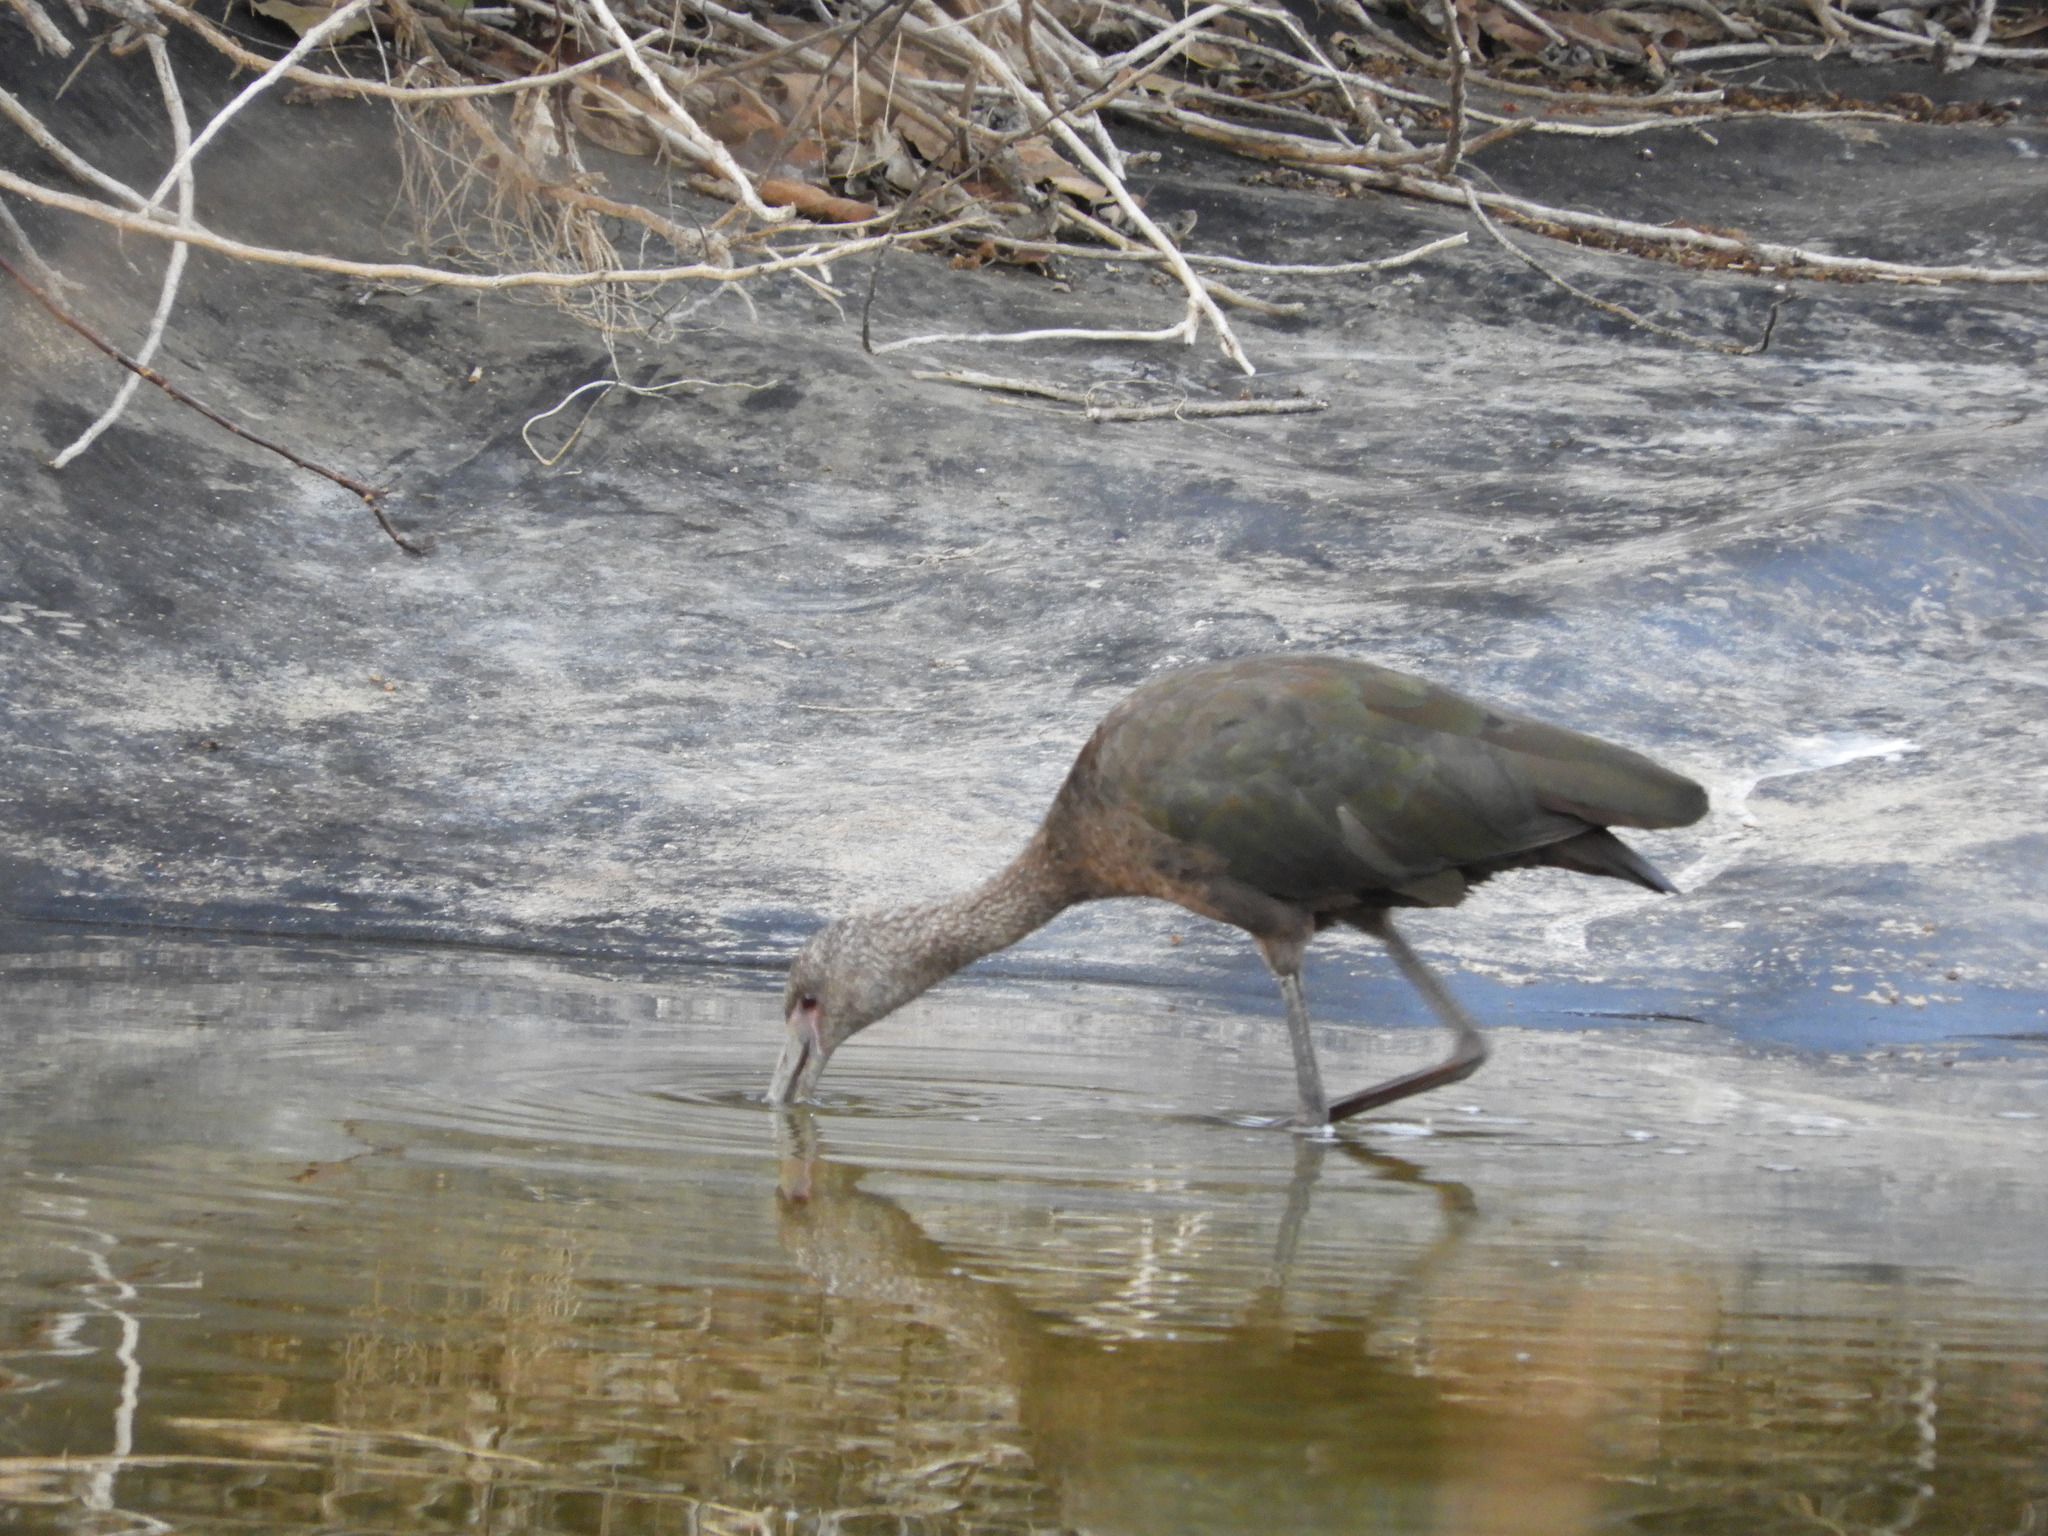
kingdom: Animalia
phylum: Chordata
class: Aves
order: Pelecaniformes
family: Threskiornithidae
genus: Plegadis
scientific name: Plegadis chihi
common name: White-faced ibis
